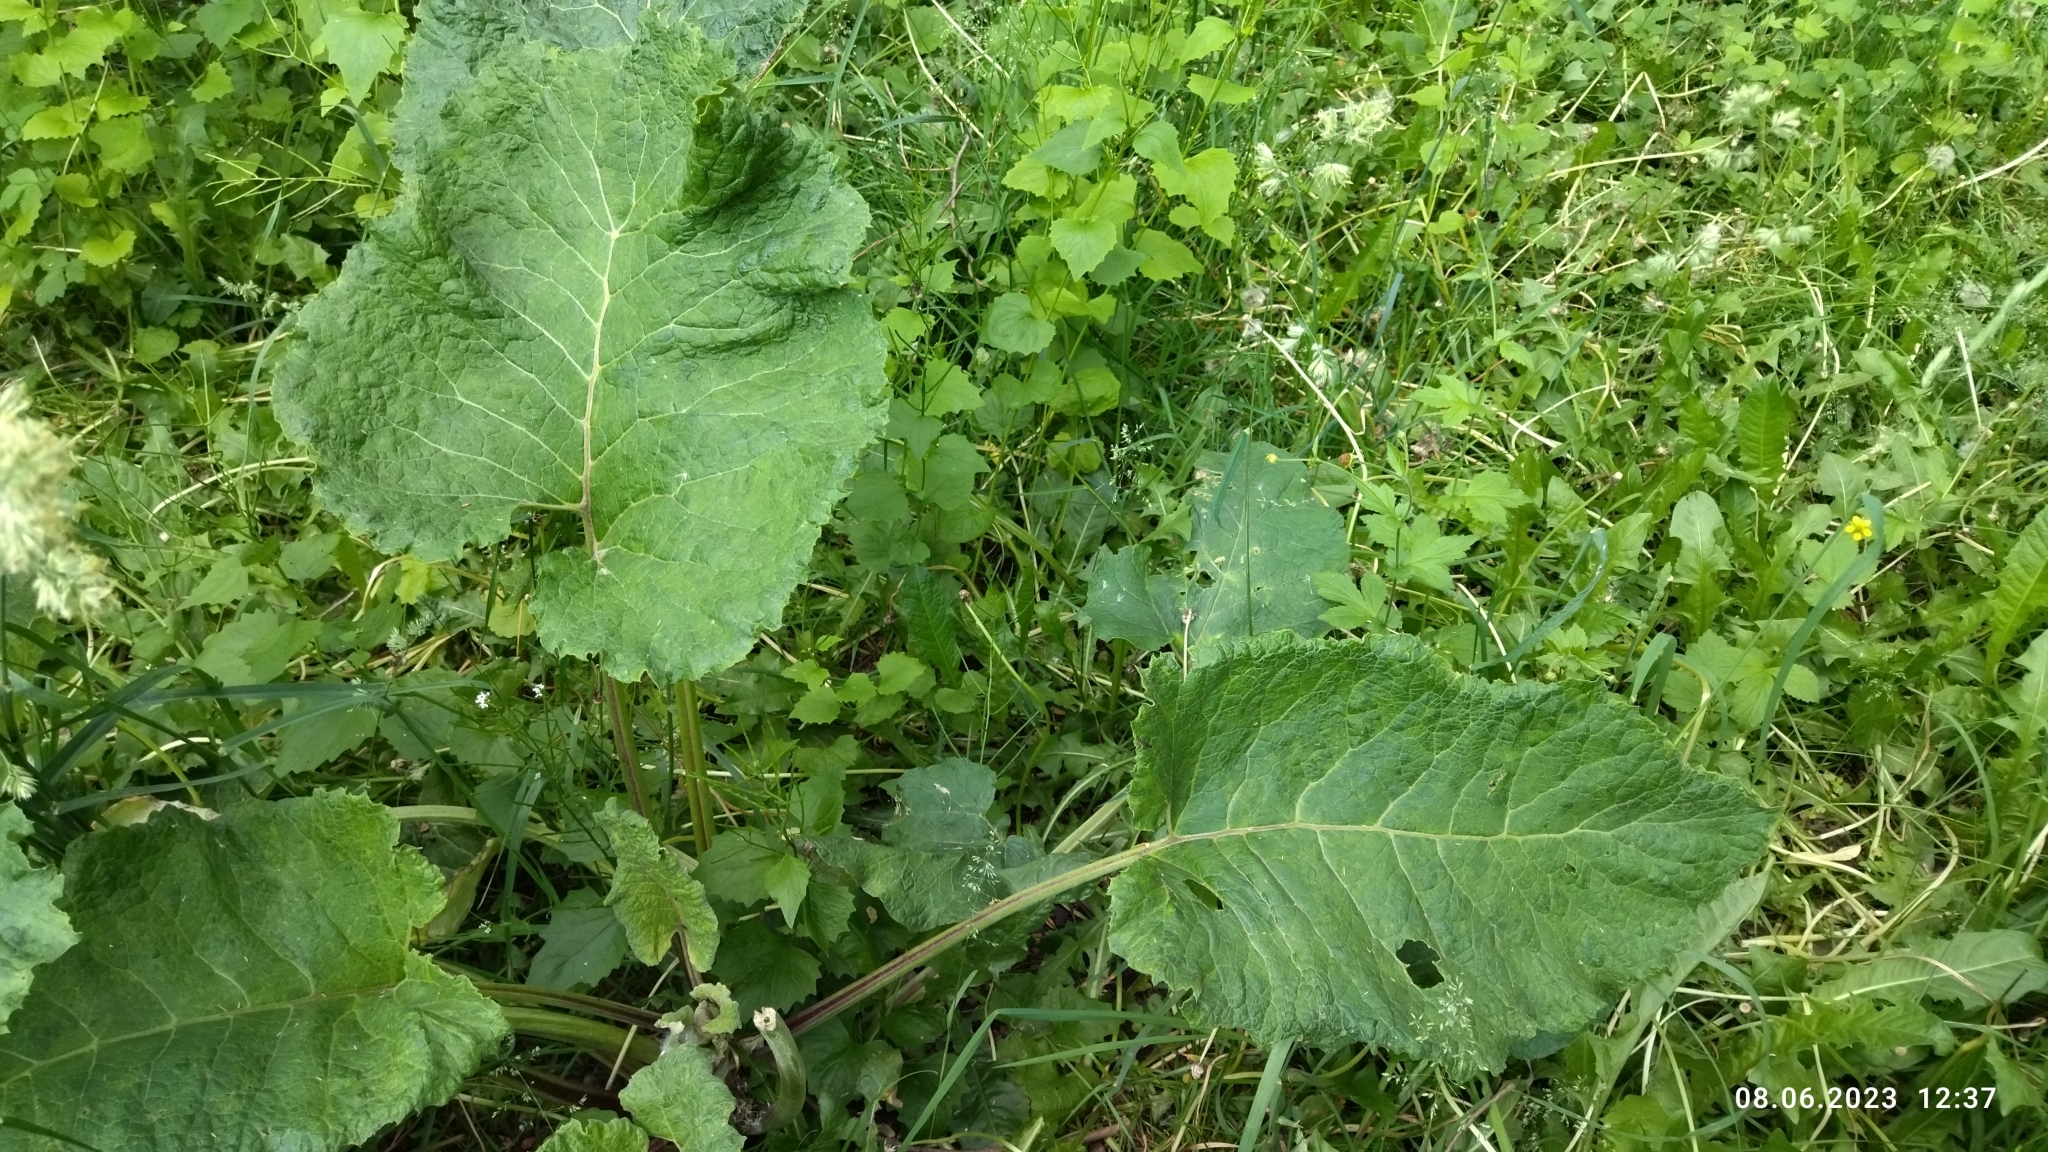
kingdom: Plantae
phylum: Tracheophyta
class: Magnoliopsida
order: Asterales
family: Asteraceae
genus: Arctium
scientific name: Arctium
